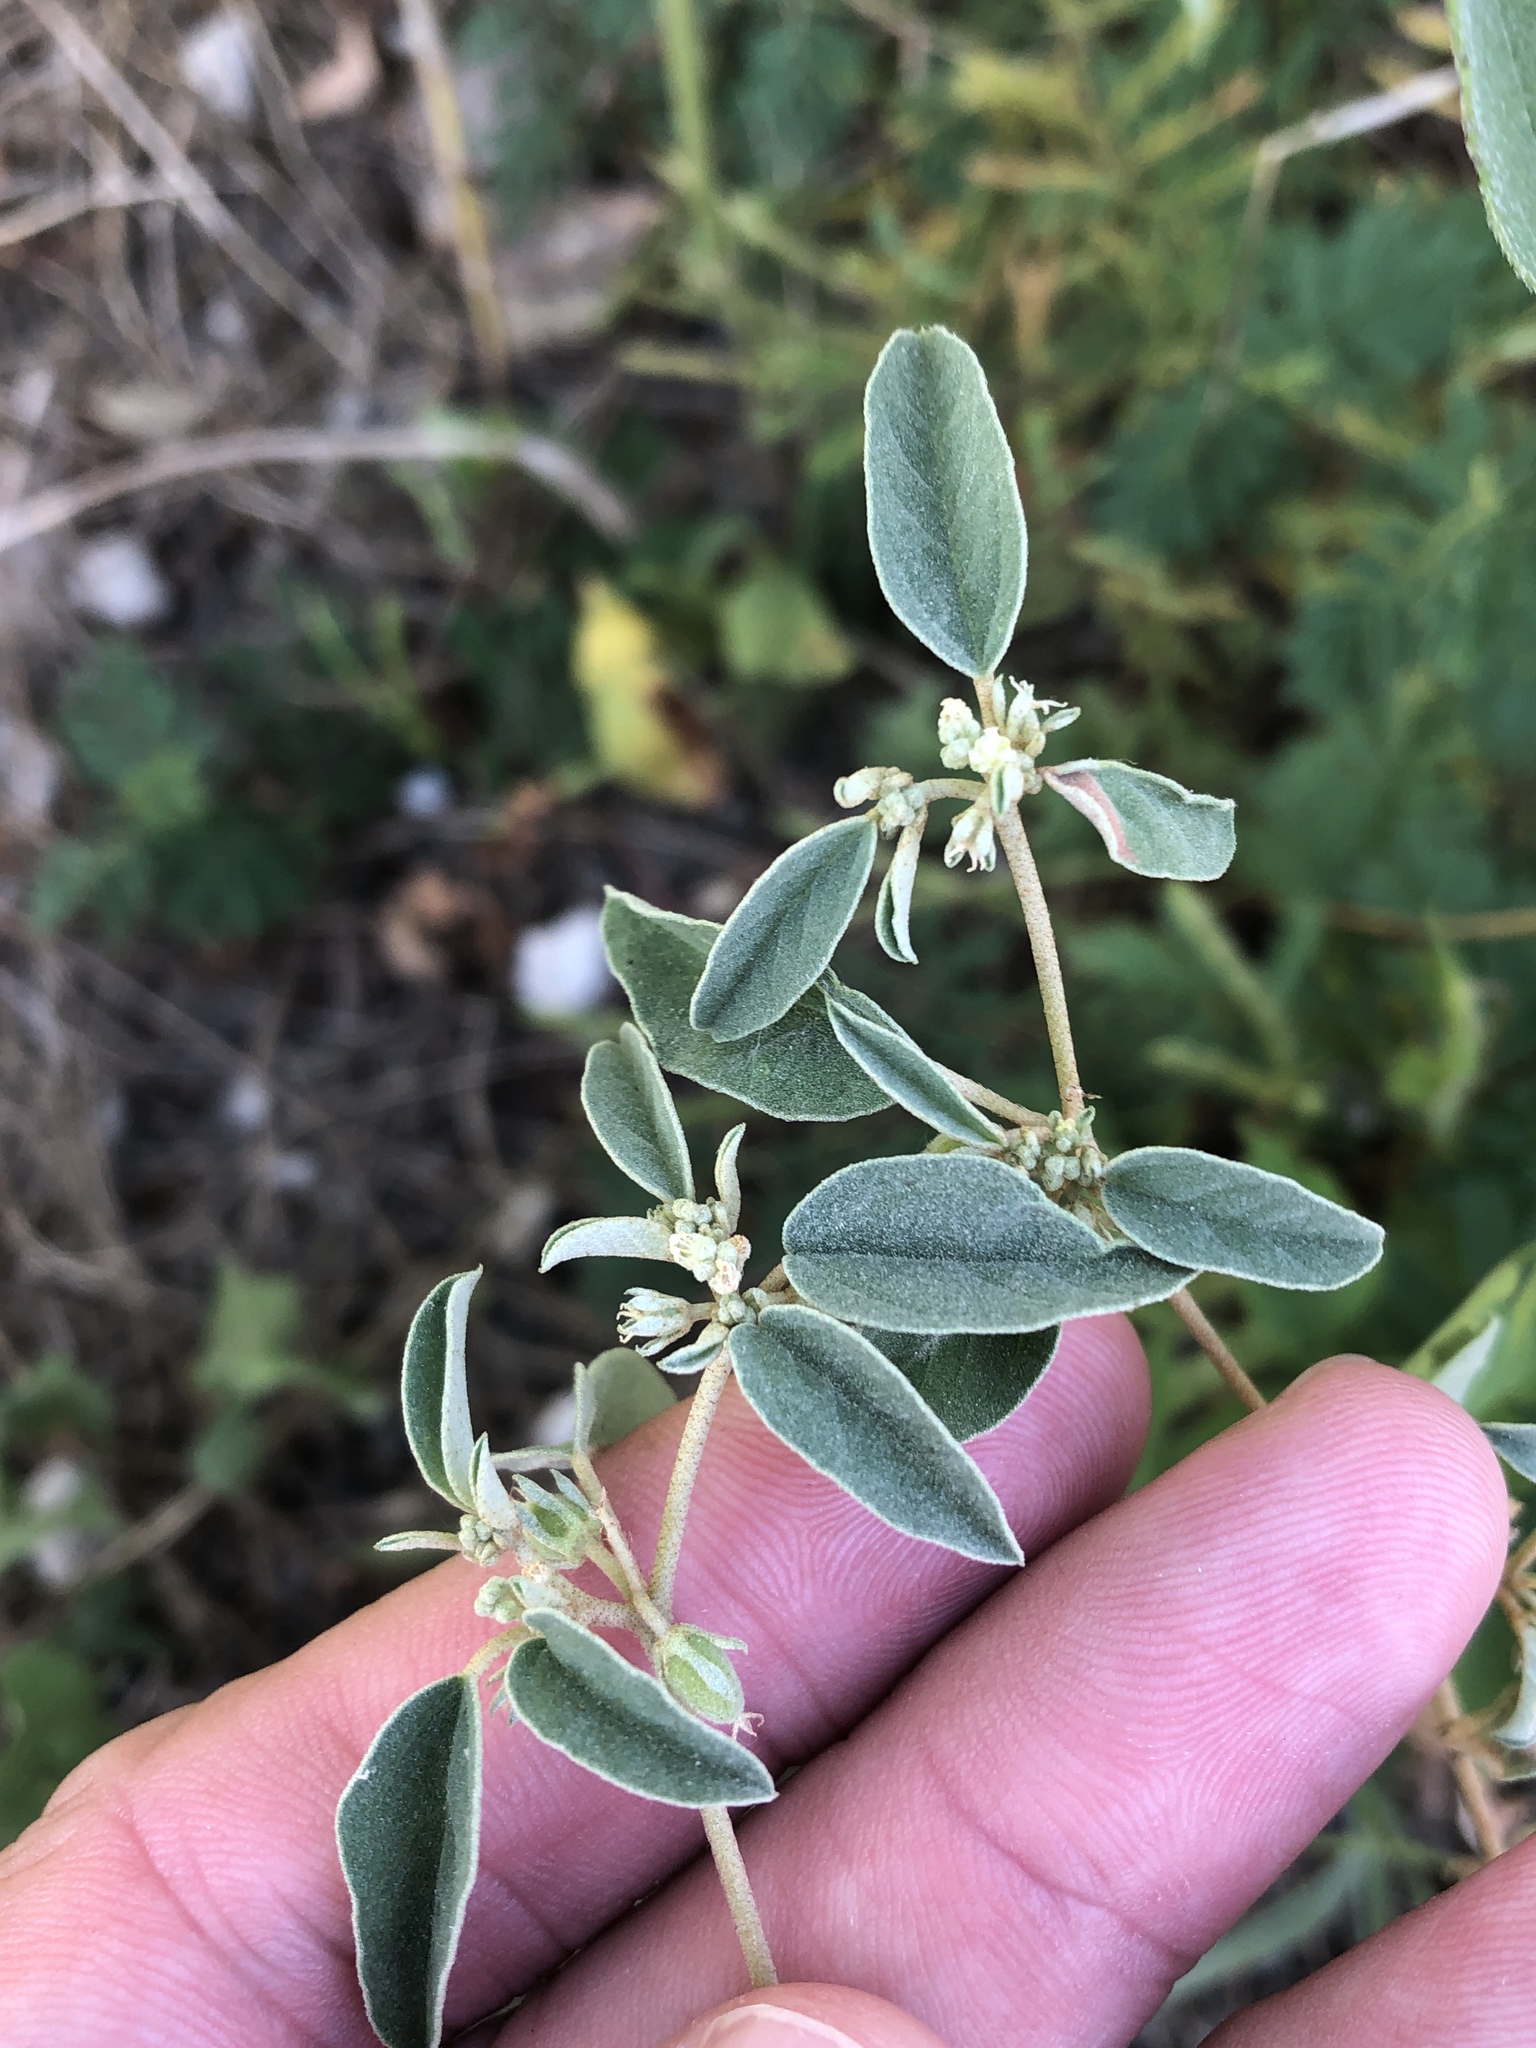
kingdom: Plantae
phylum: Tracheophyta
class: Magnoliopsida
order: Malpighiales
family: Euphorbiaceae
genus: Croton
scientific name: Croton monanthogynus
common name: One-seed croton
